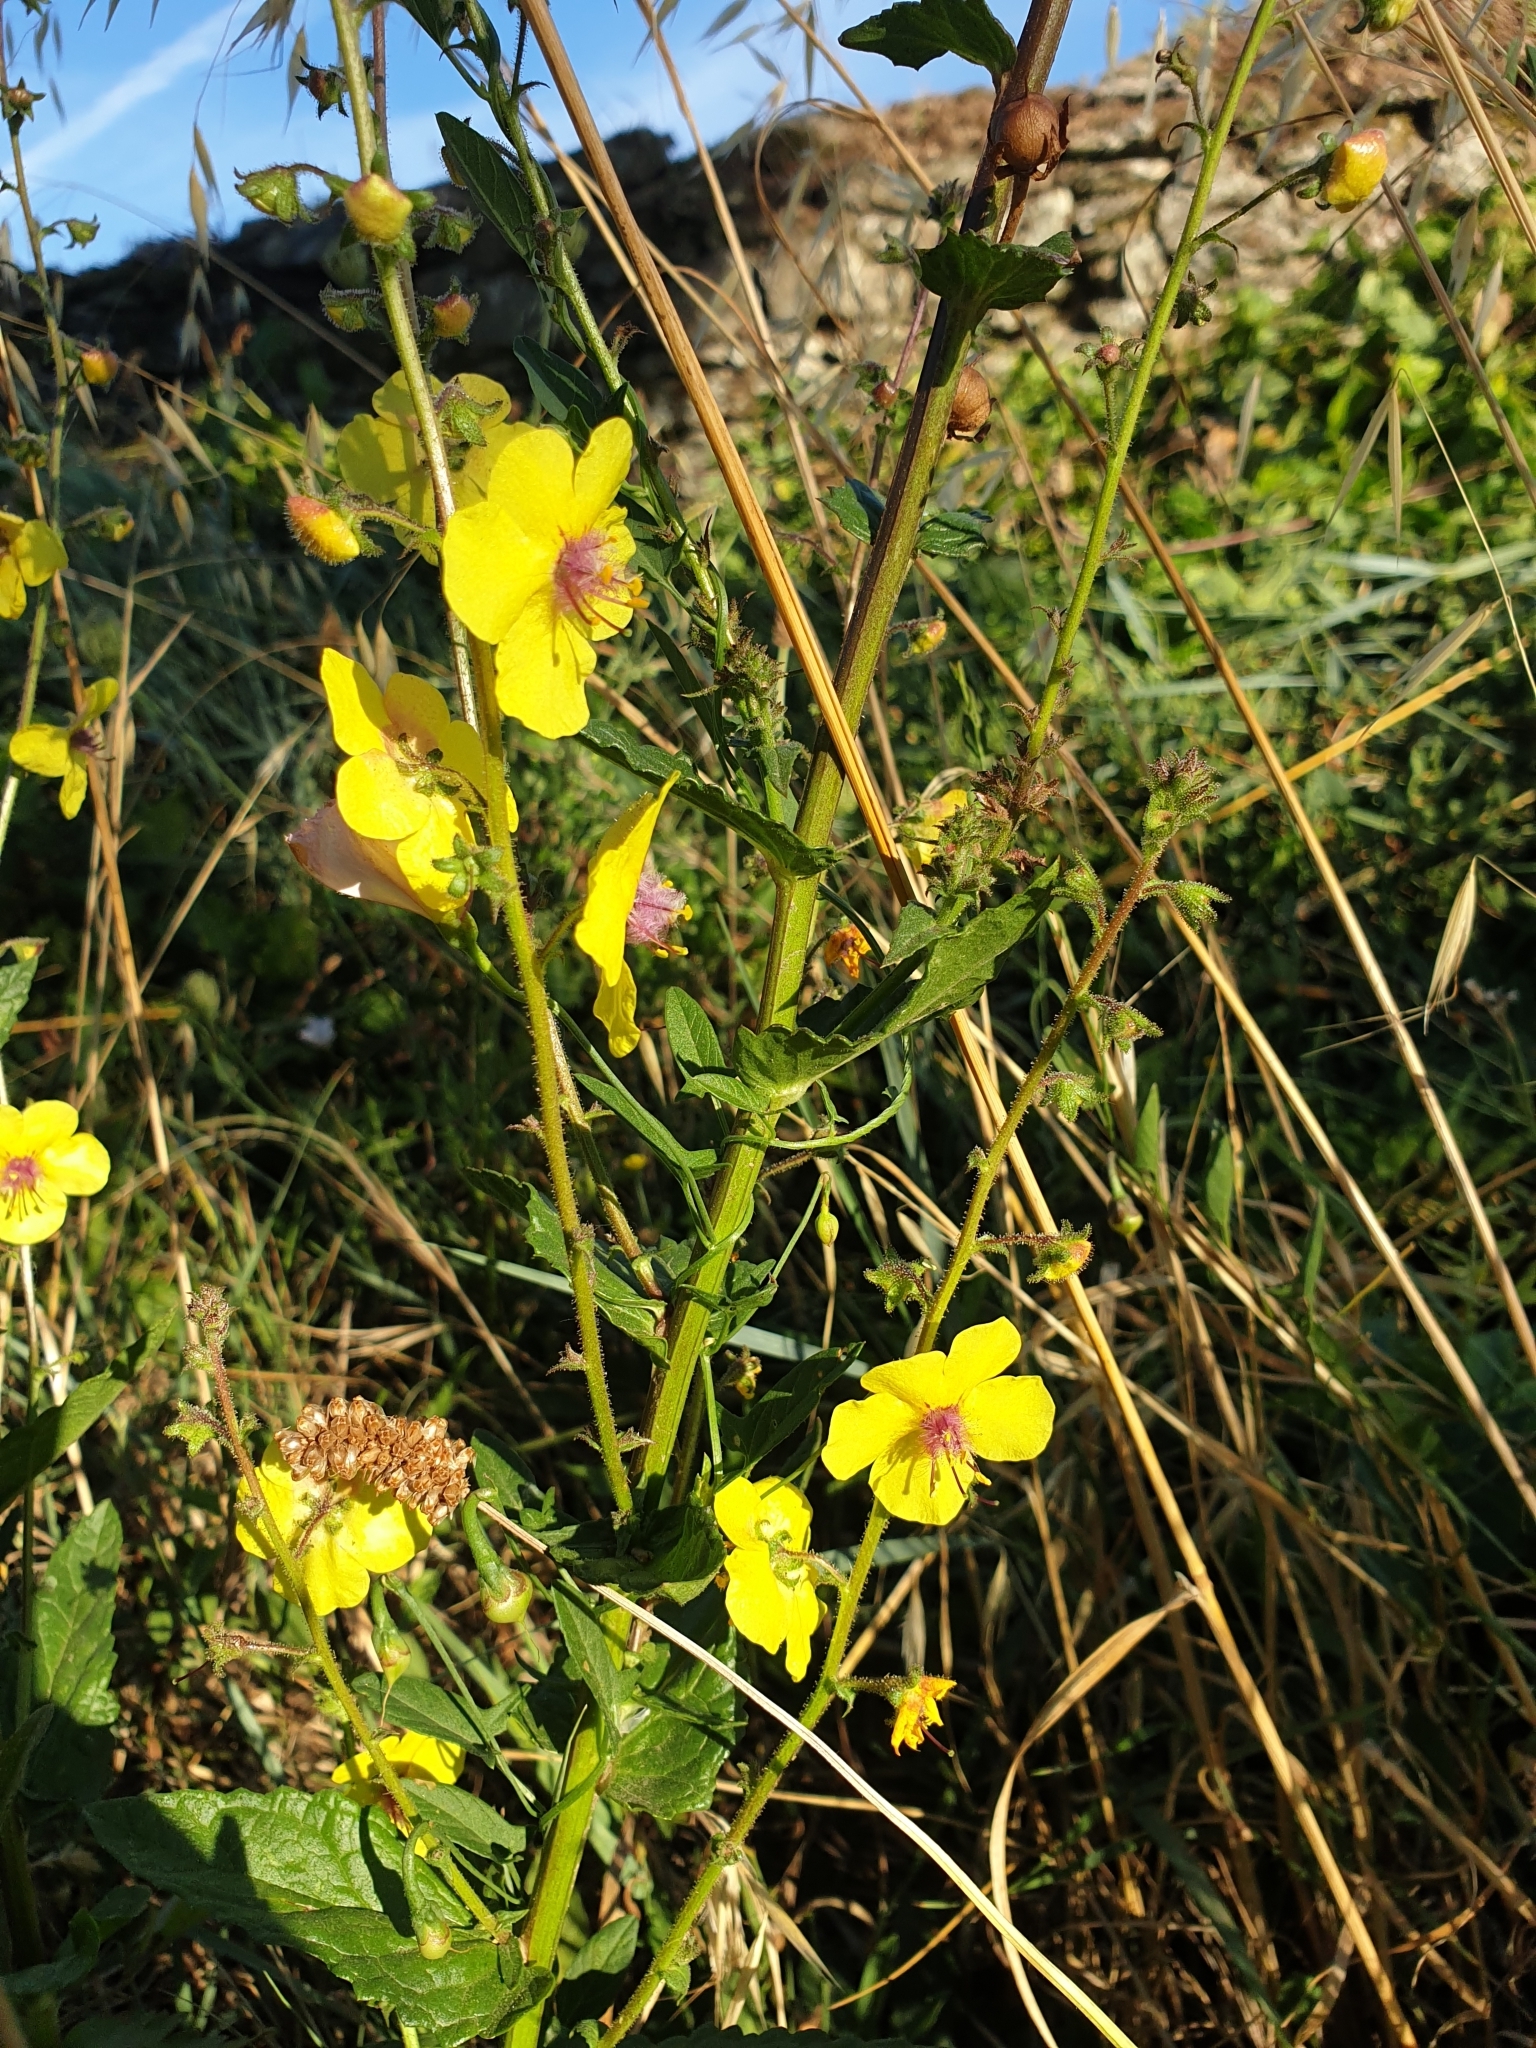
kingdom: Plantae
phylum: Tracheophyta
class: Magnoliopsida
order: Lamiales
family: Scrophulariaceae
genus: Verbascum
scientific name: Verbascum blattaria
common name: Moth mullein
